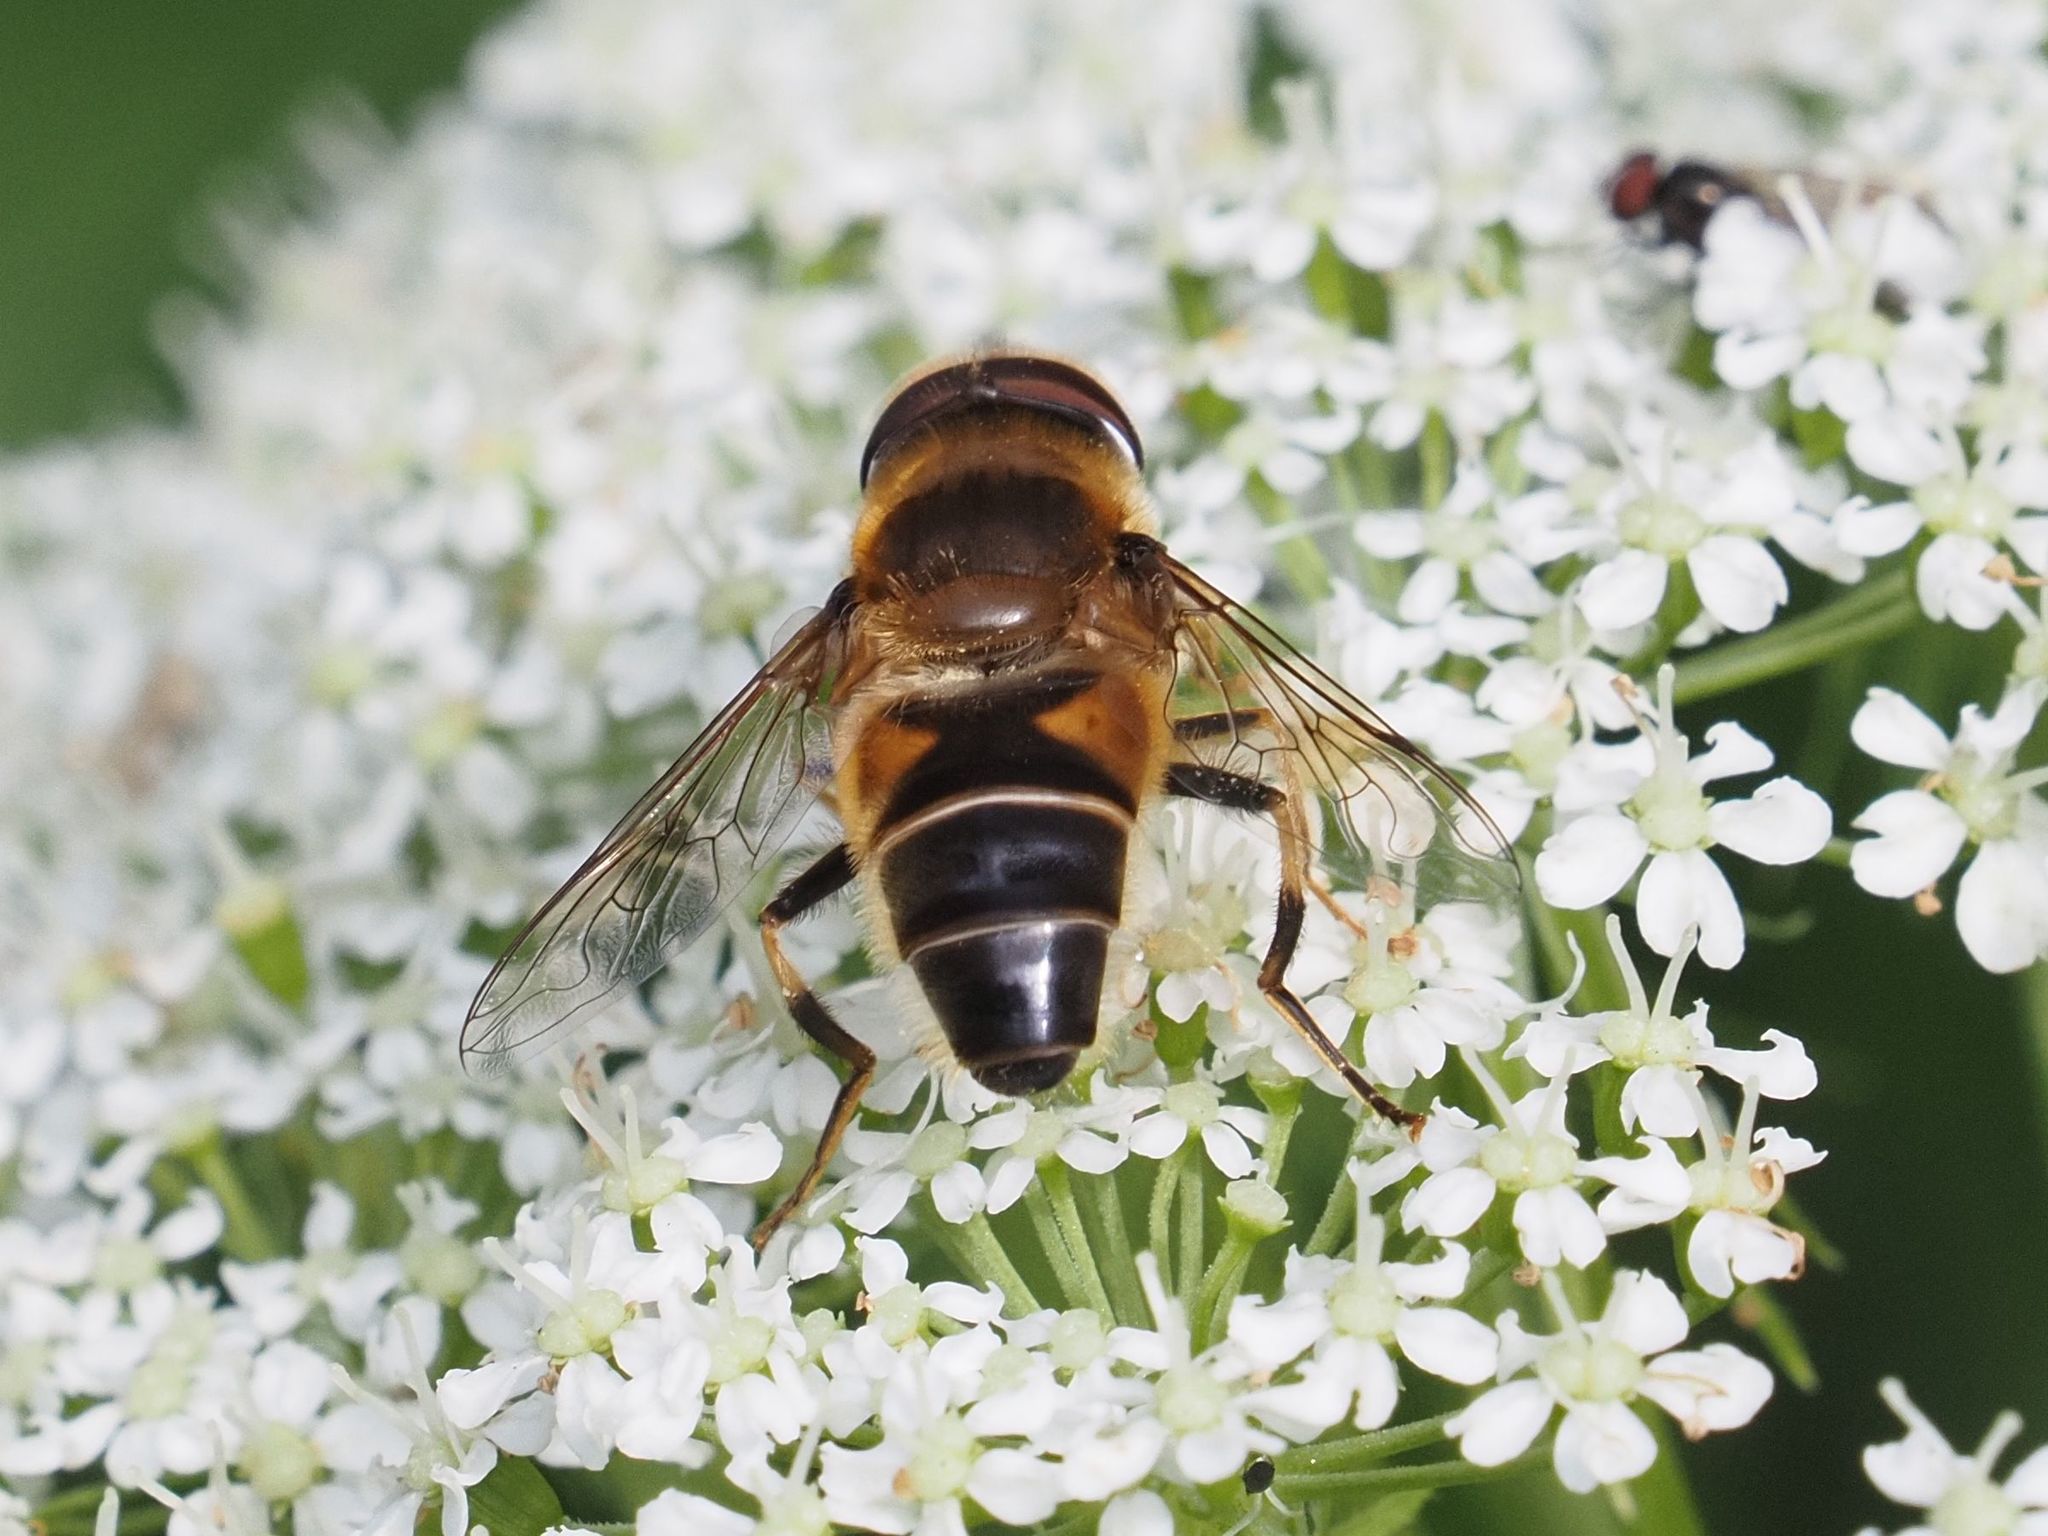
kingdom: Animalia
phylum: Arthropoda
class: Insecta
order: Diptera
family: Syrphidae
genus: Eristalis
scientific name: Eristalis pertinax
